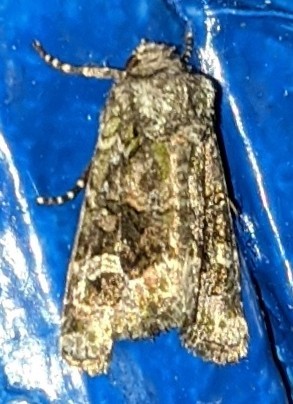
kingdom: Animalia
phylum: Arthropoda
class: Insecta
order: Lepidoptera
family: Noctuidae
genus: Lacinipolia
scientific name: Lacinipolia olivacea
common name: Olive arches moth
